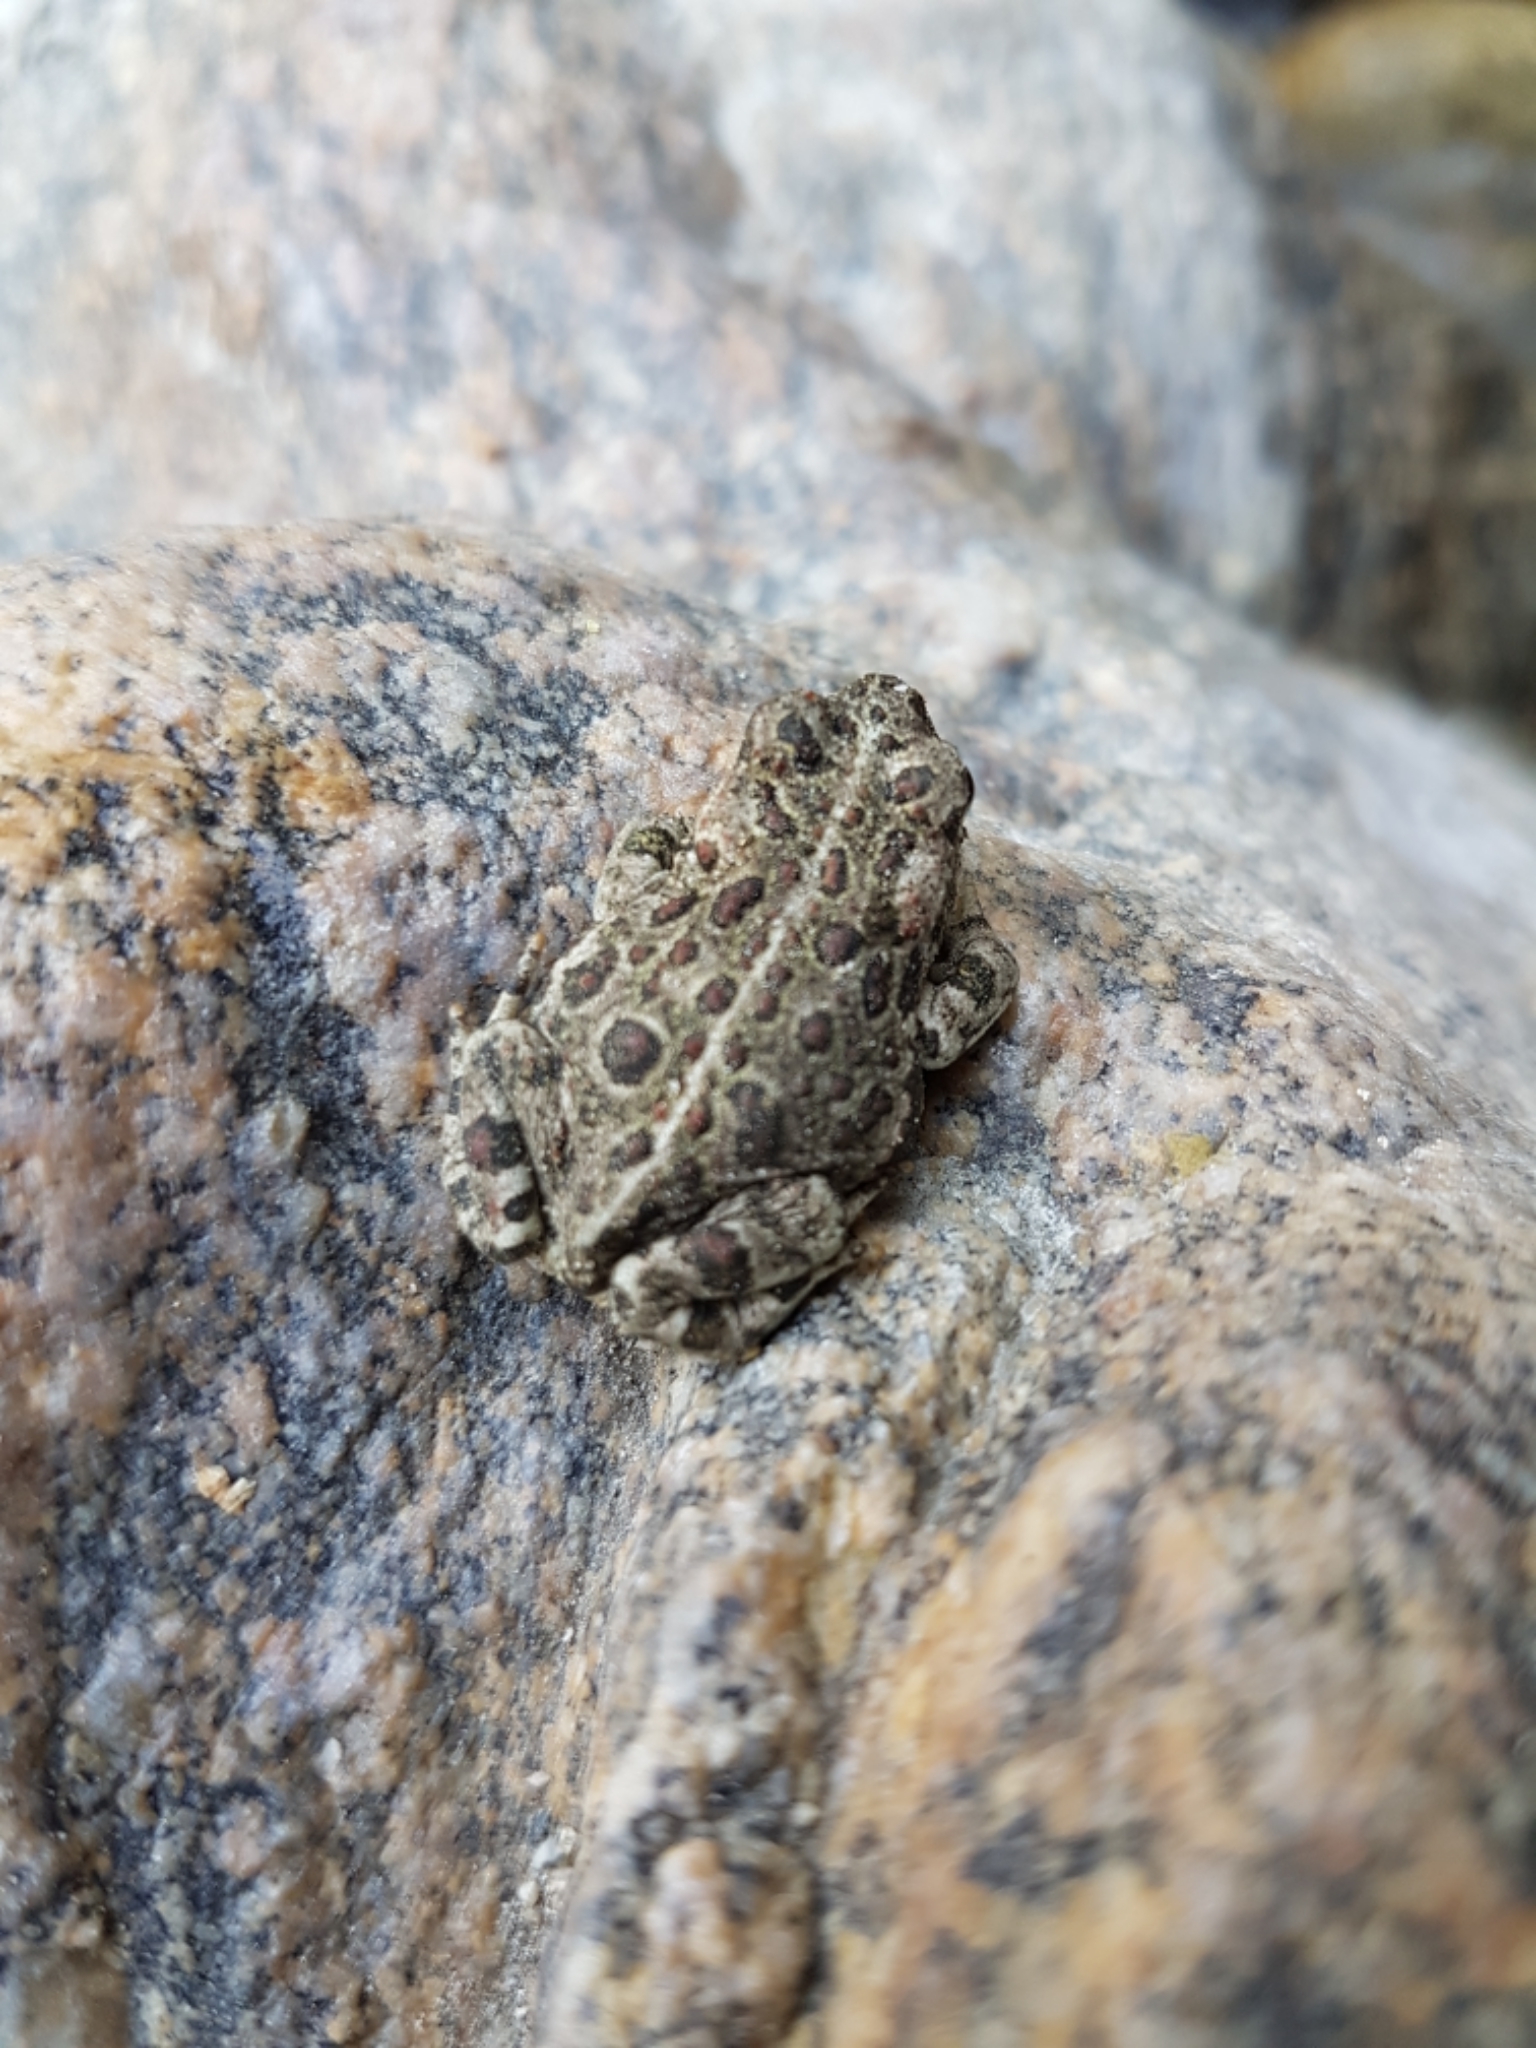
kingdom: Animalia
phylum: Chordata
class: Amphibia
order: Anura
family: Bufonidae
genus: Anaxyrus
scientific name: Anaxyrus boreas
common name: Western toad
